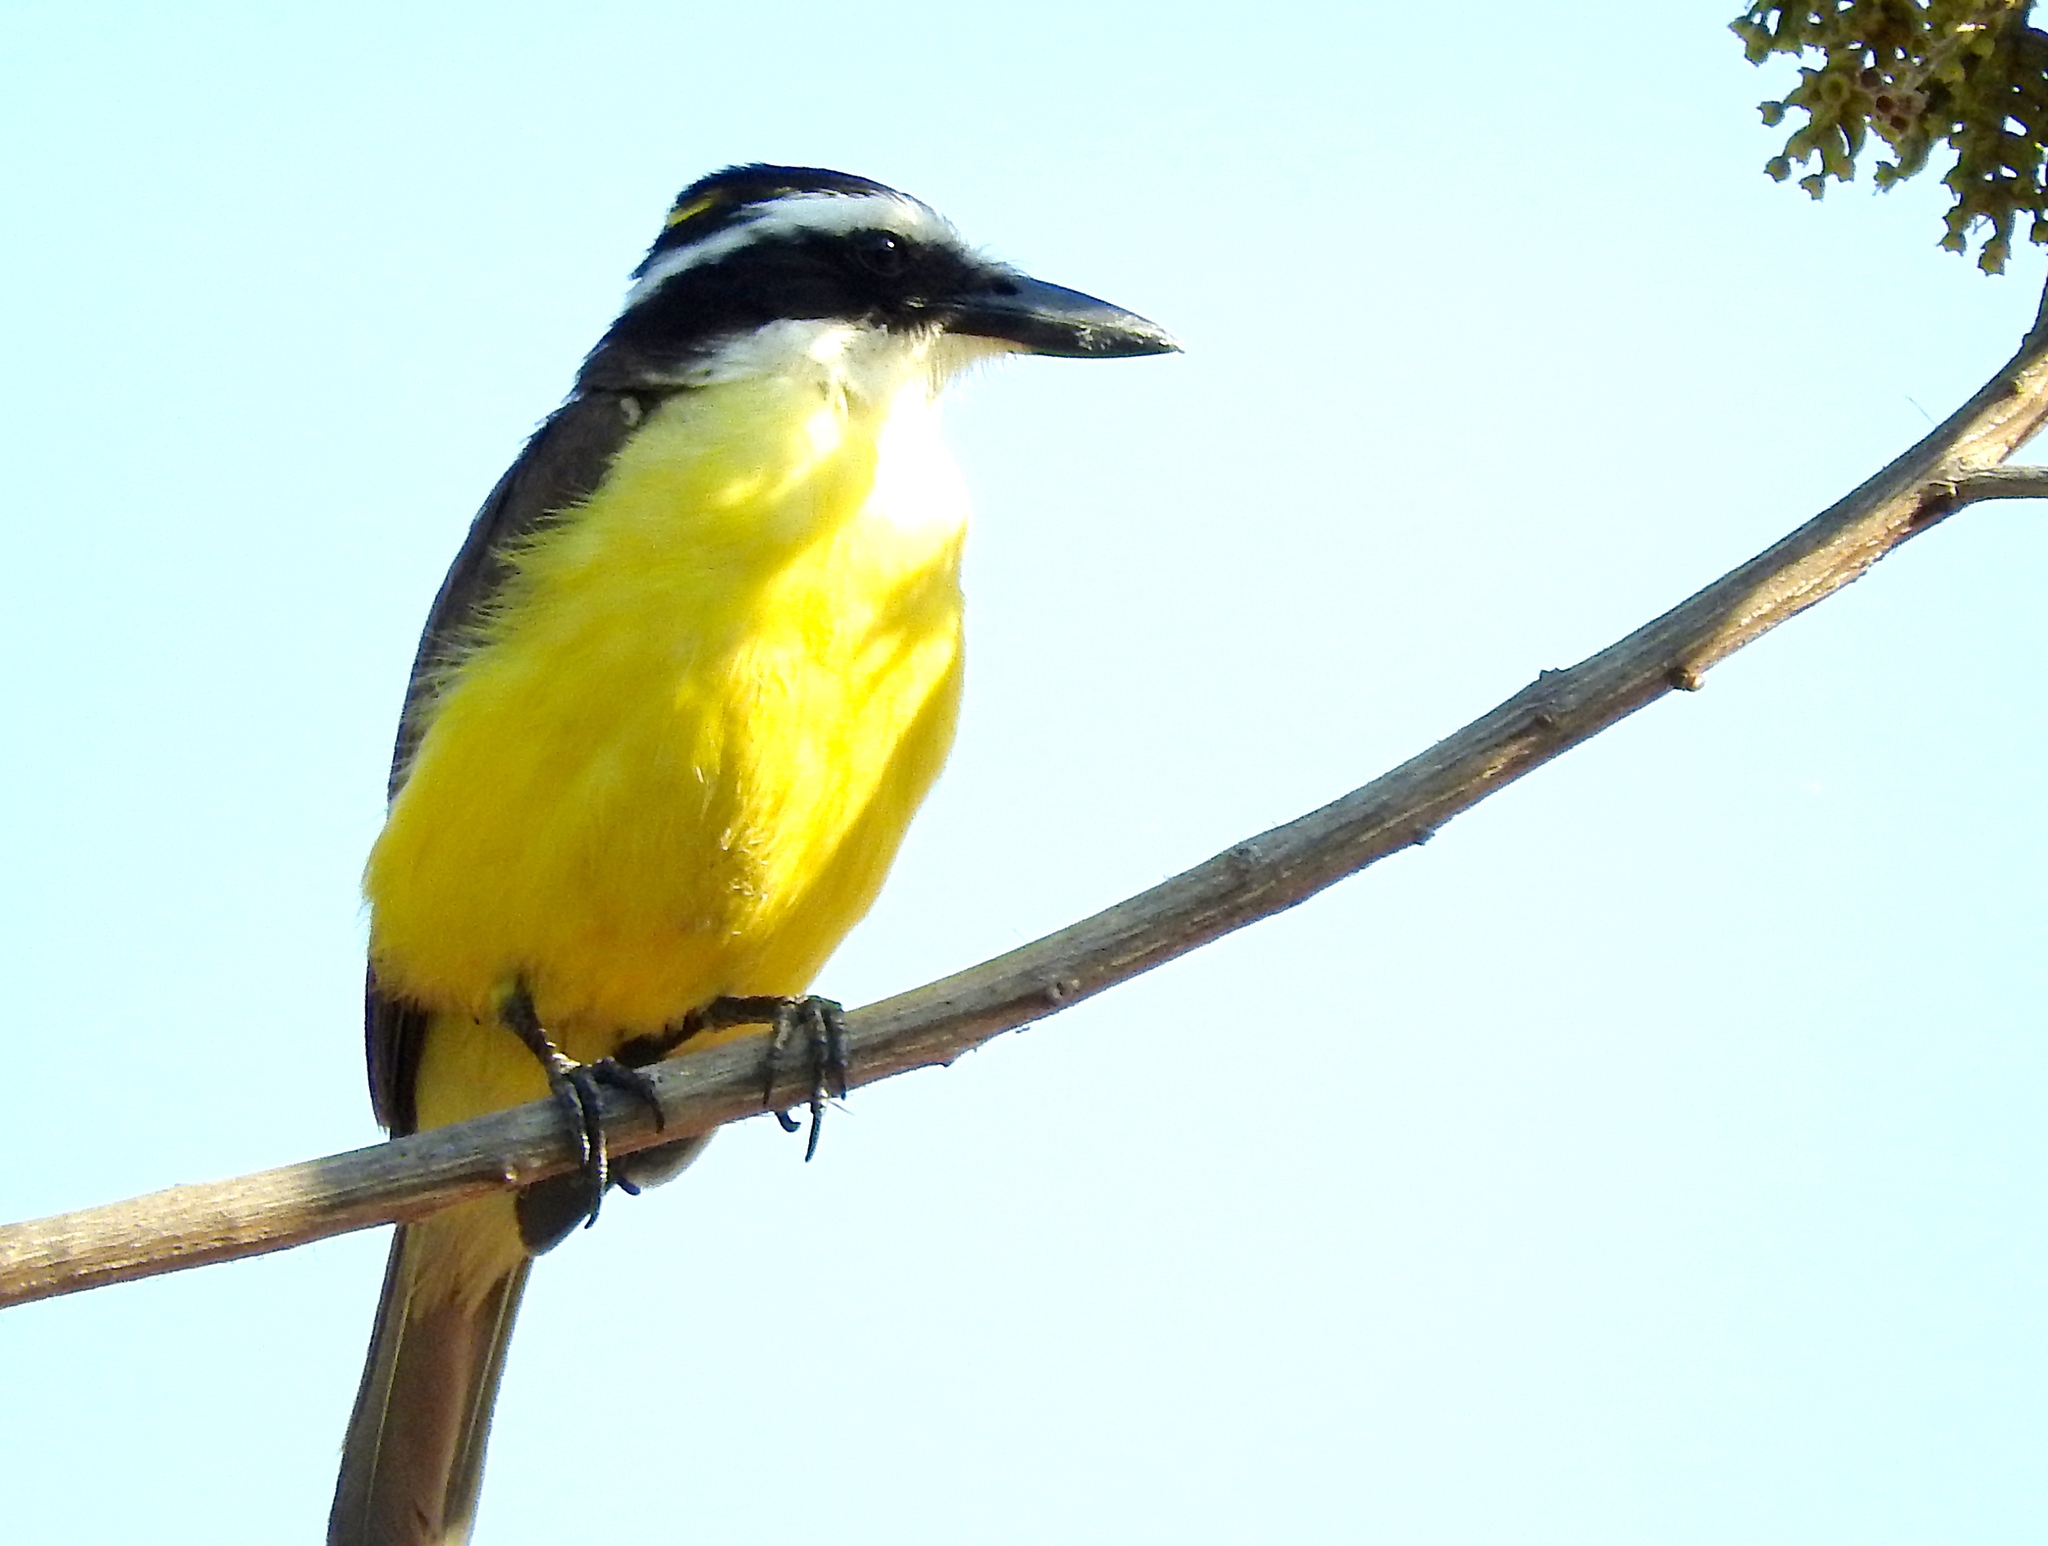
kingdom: Animalia
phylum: Chordata
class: Aves
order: Passeriformes
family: Tyrannidae
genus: Pitangus
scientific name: Pitangus sulphuratus
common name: Great kiskadee
